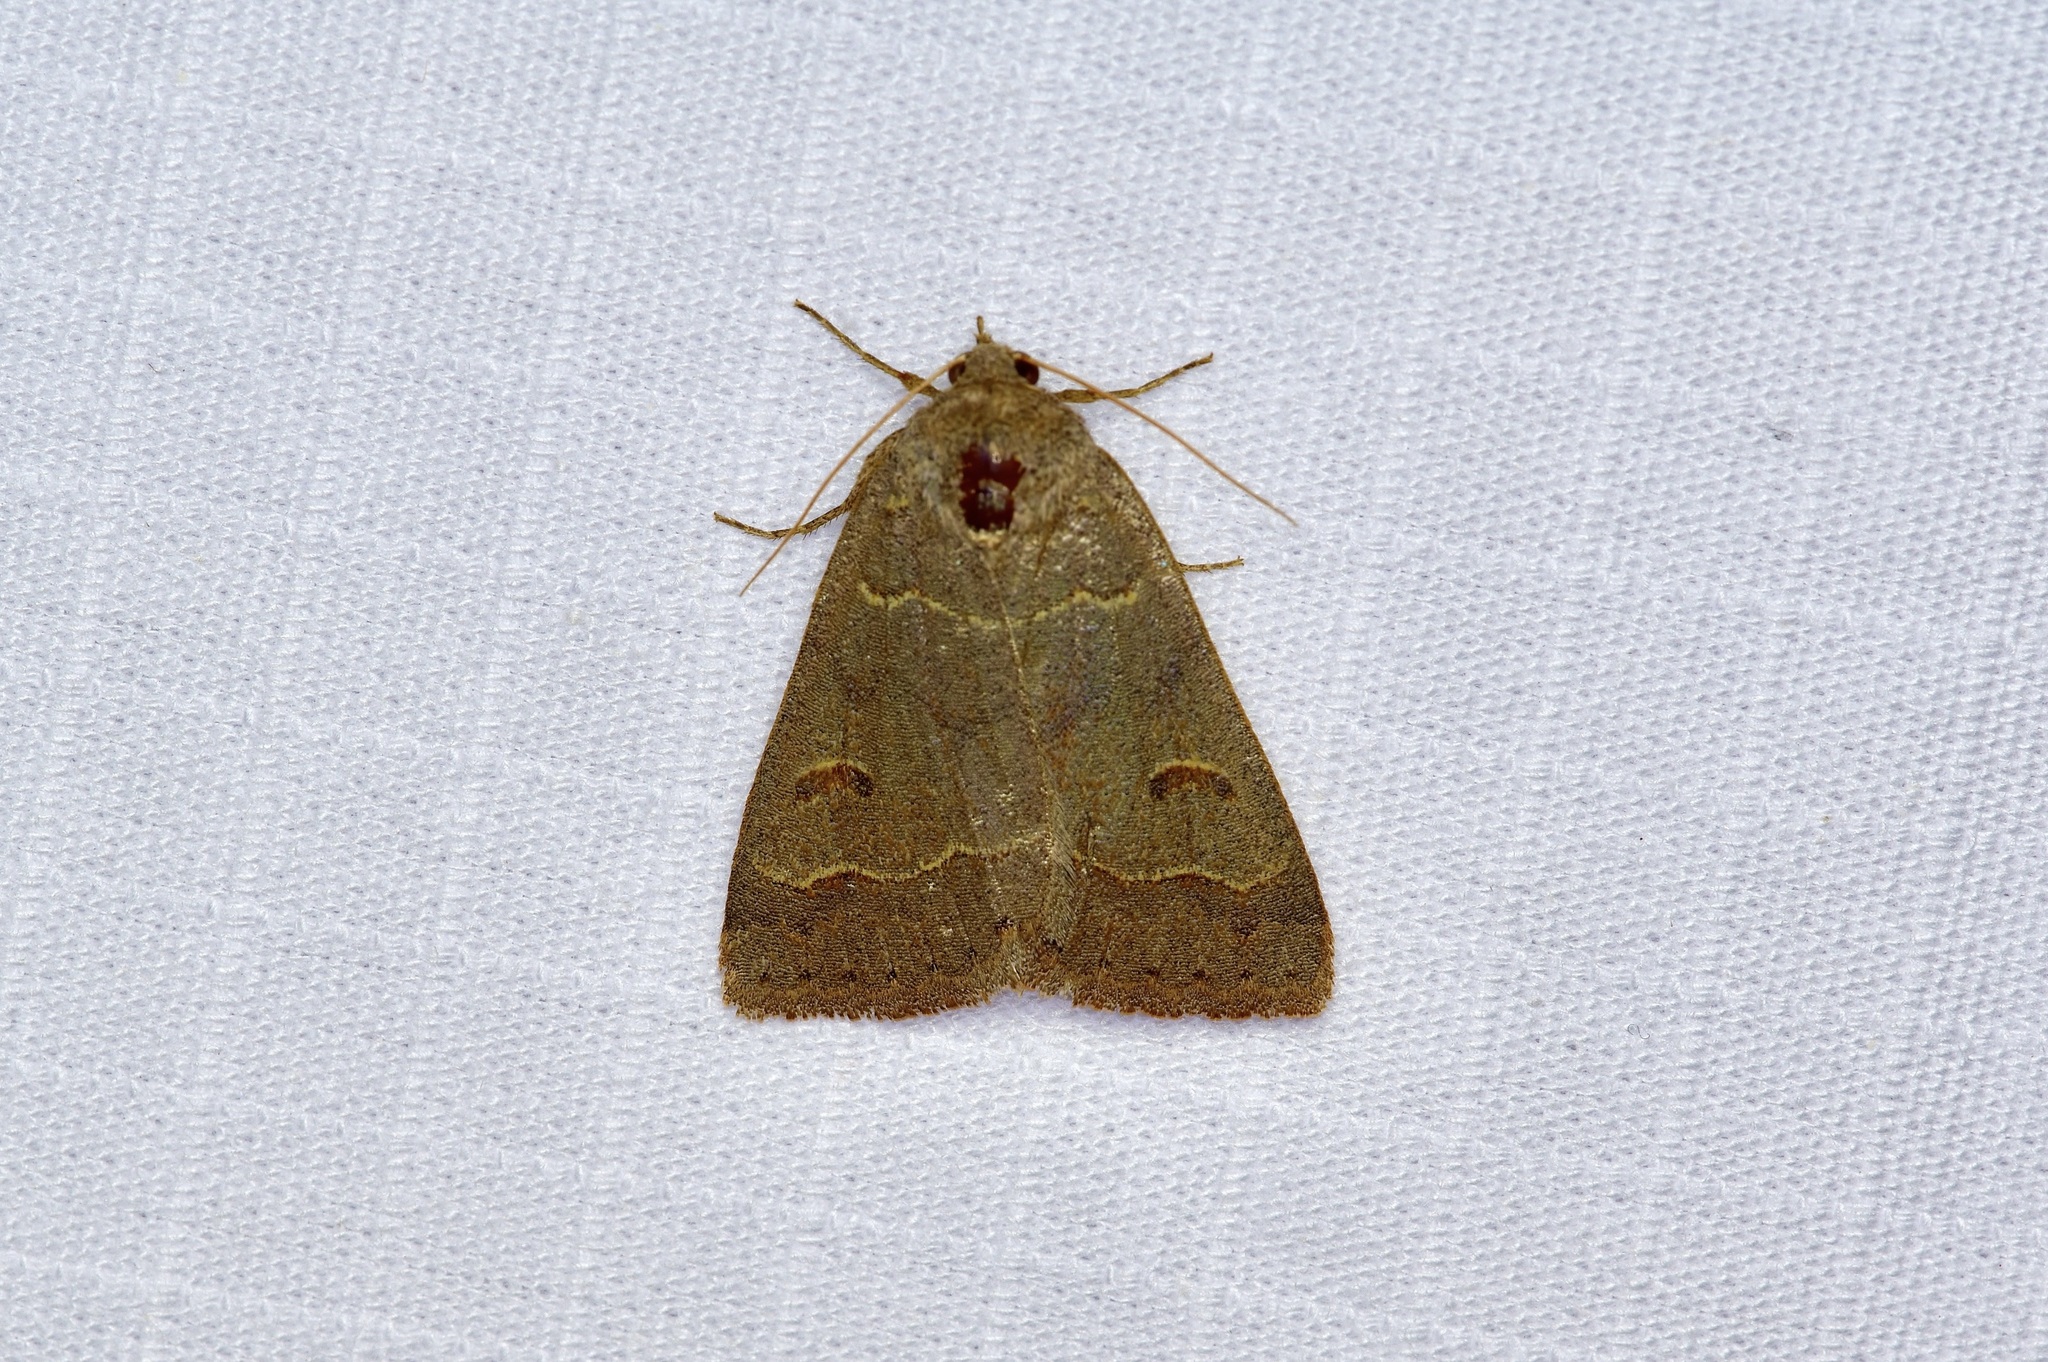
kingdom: Animalia
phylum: Arthropoda
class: Insecta
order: Lepidoptera
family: Erebidae
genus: Phoberia
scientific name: Phoberia atomaris
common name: Common oak moth
